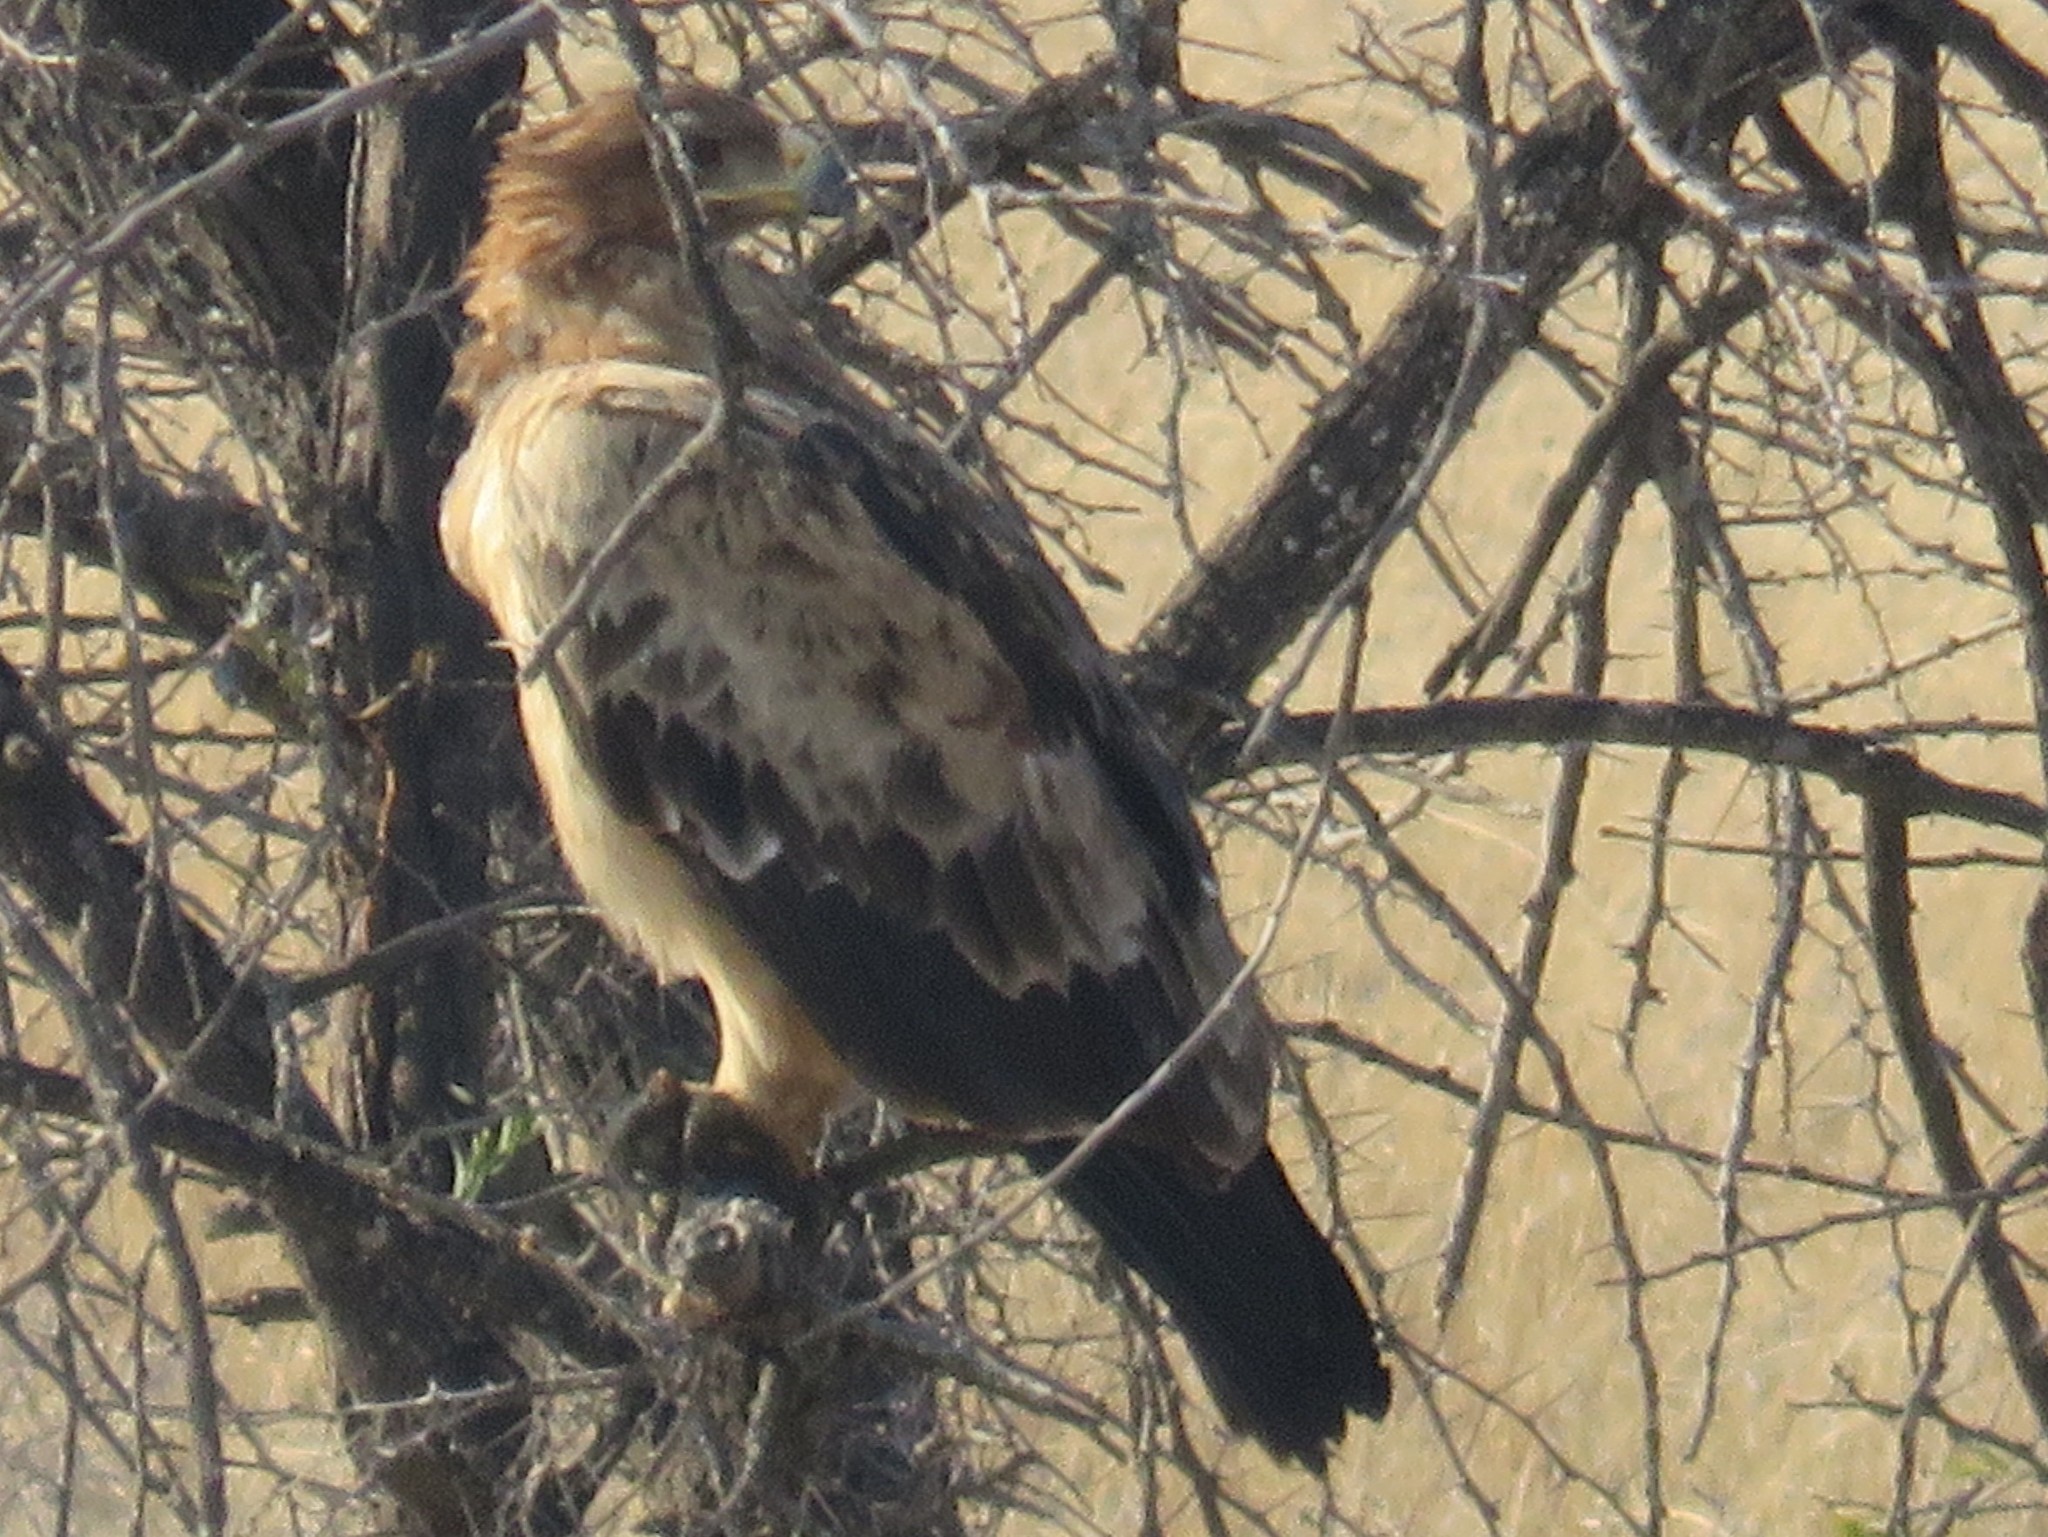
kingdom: Animalia
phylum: Chordata
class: Aves
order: Accipitriformes
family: Accipitridae
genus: Aquila
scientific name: Aquila rapax
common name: Tawny eagle
